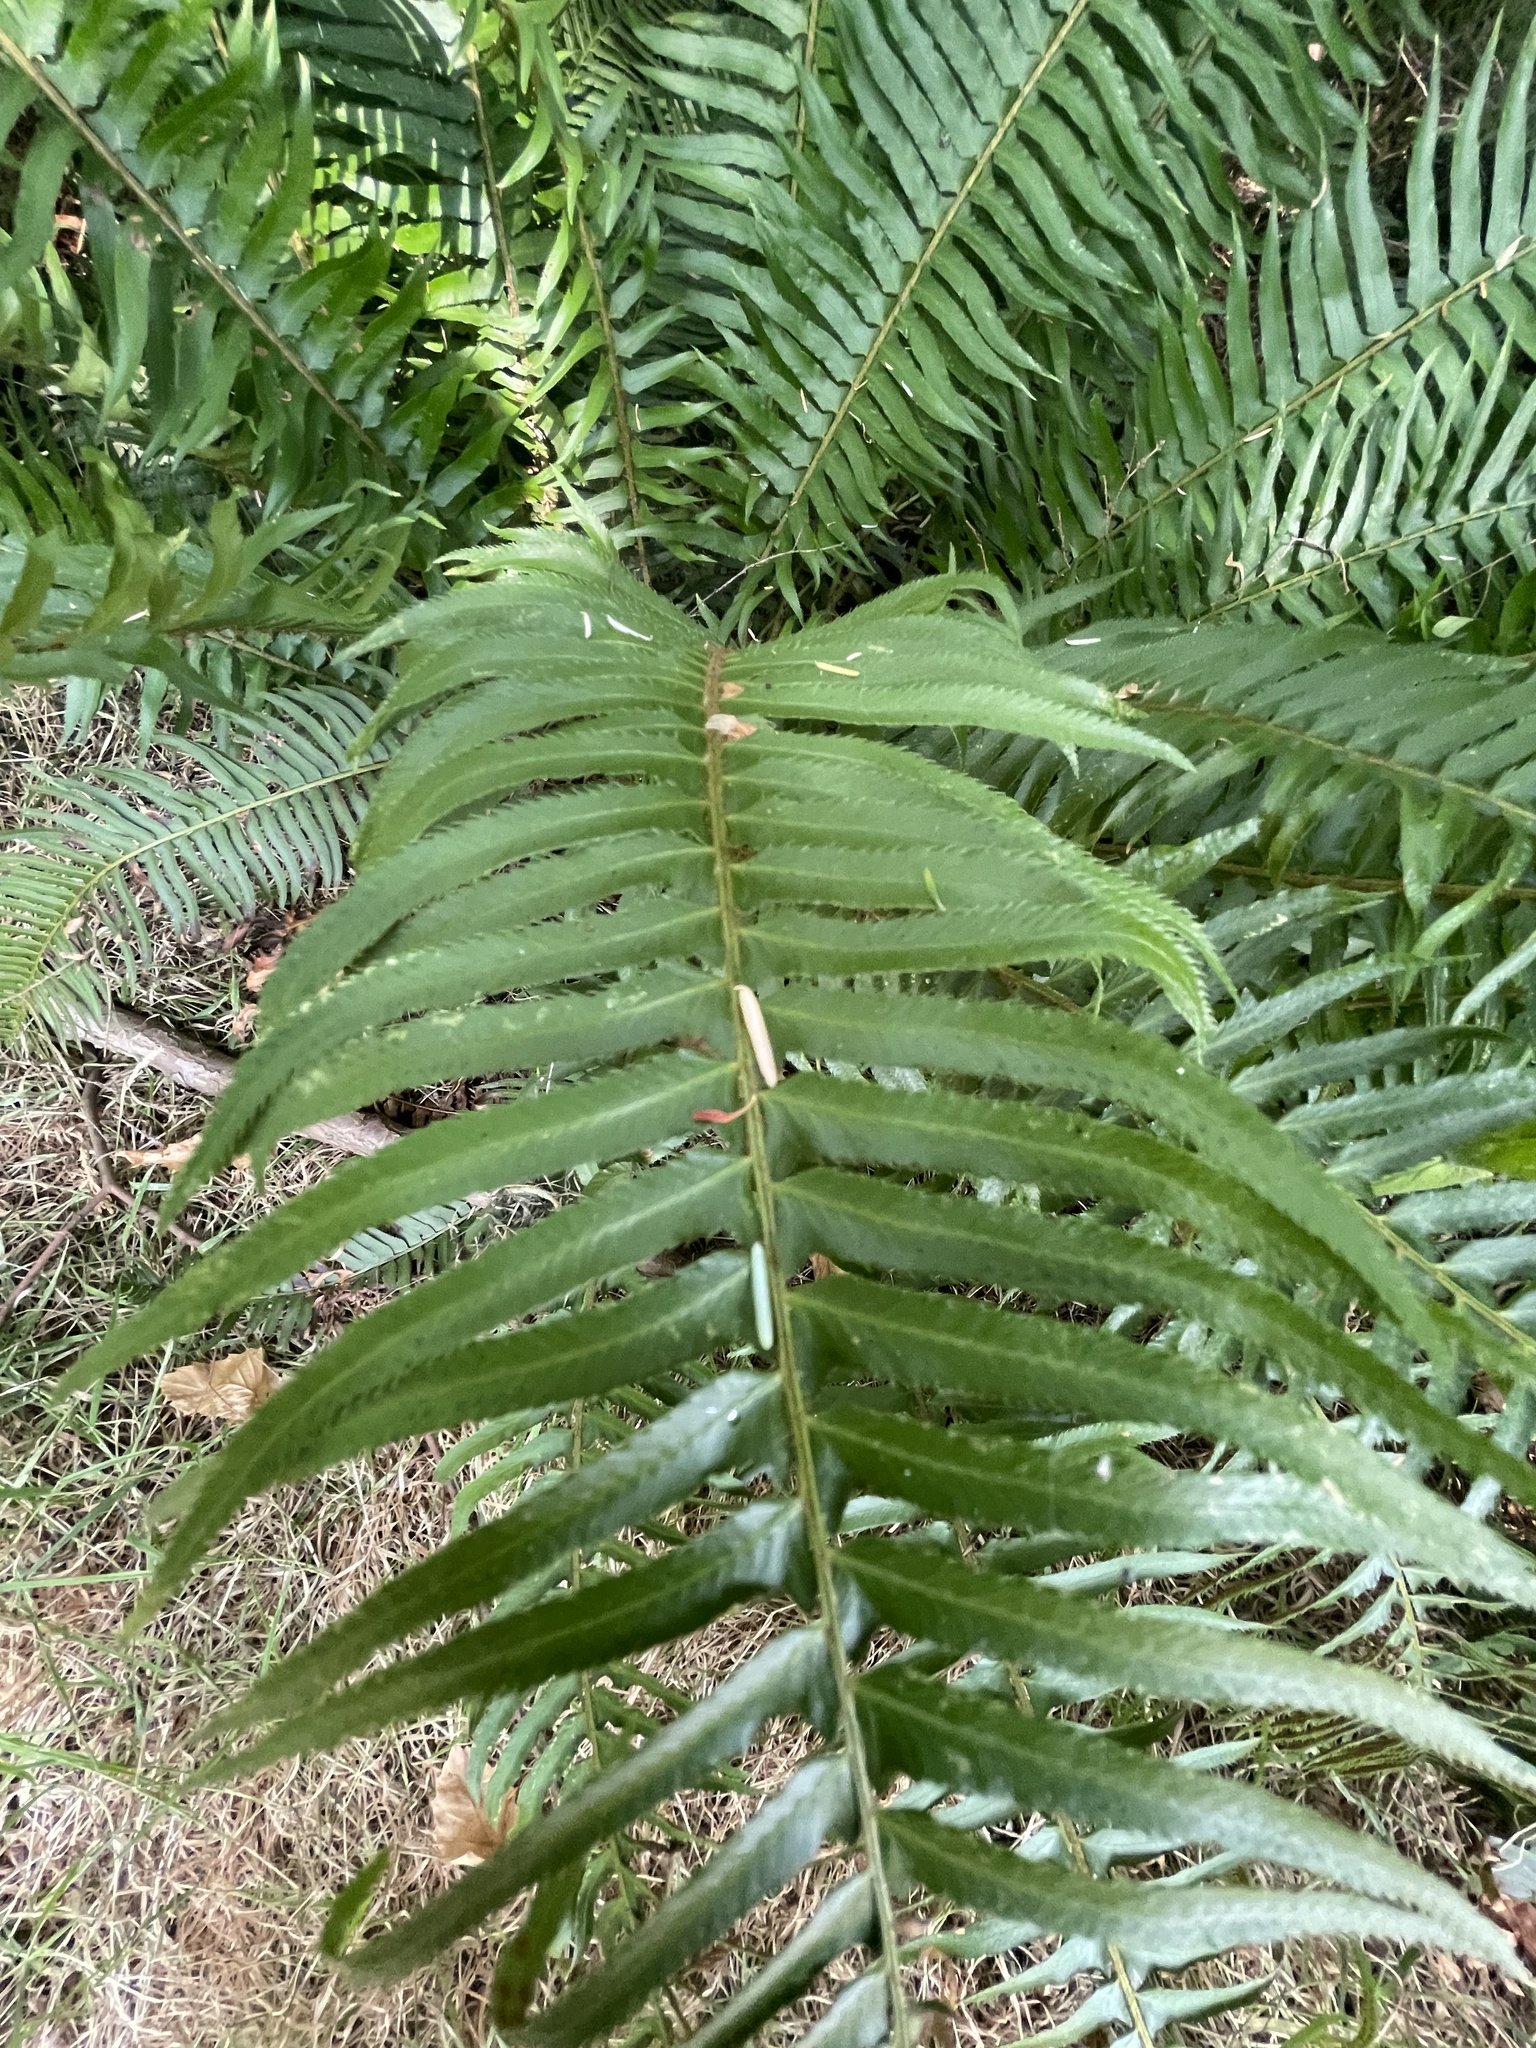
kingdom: Plantae
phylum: Tracheophyta
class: Polypodiopsida
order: Polypodiales
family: Dryopteridaceae
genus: Polystichum
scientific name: Polystichum munitum
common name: Western sword-fern
